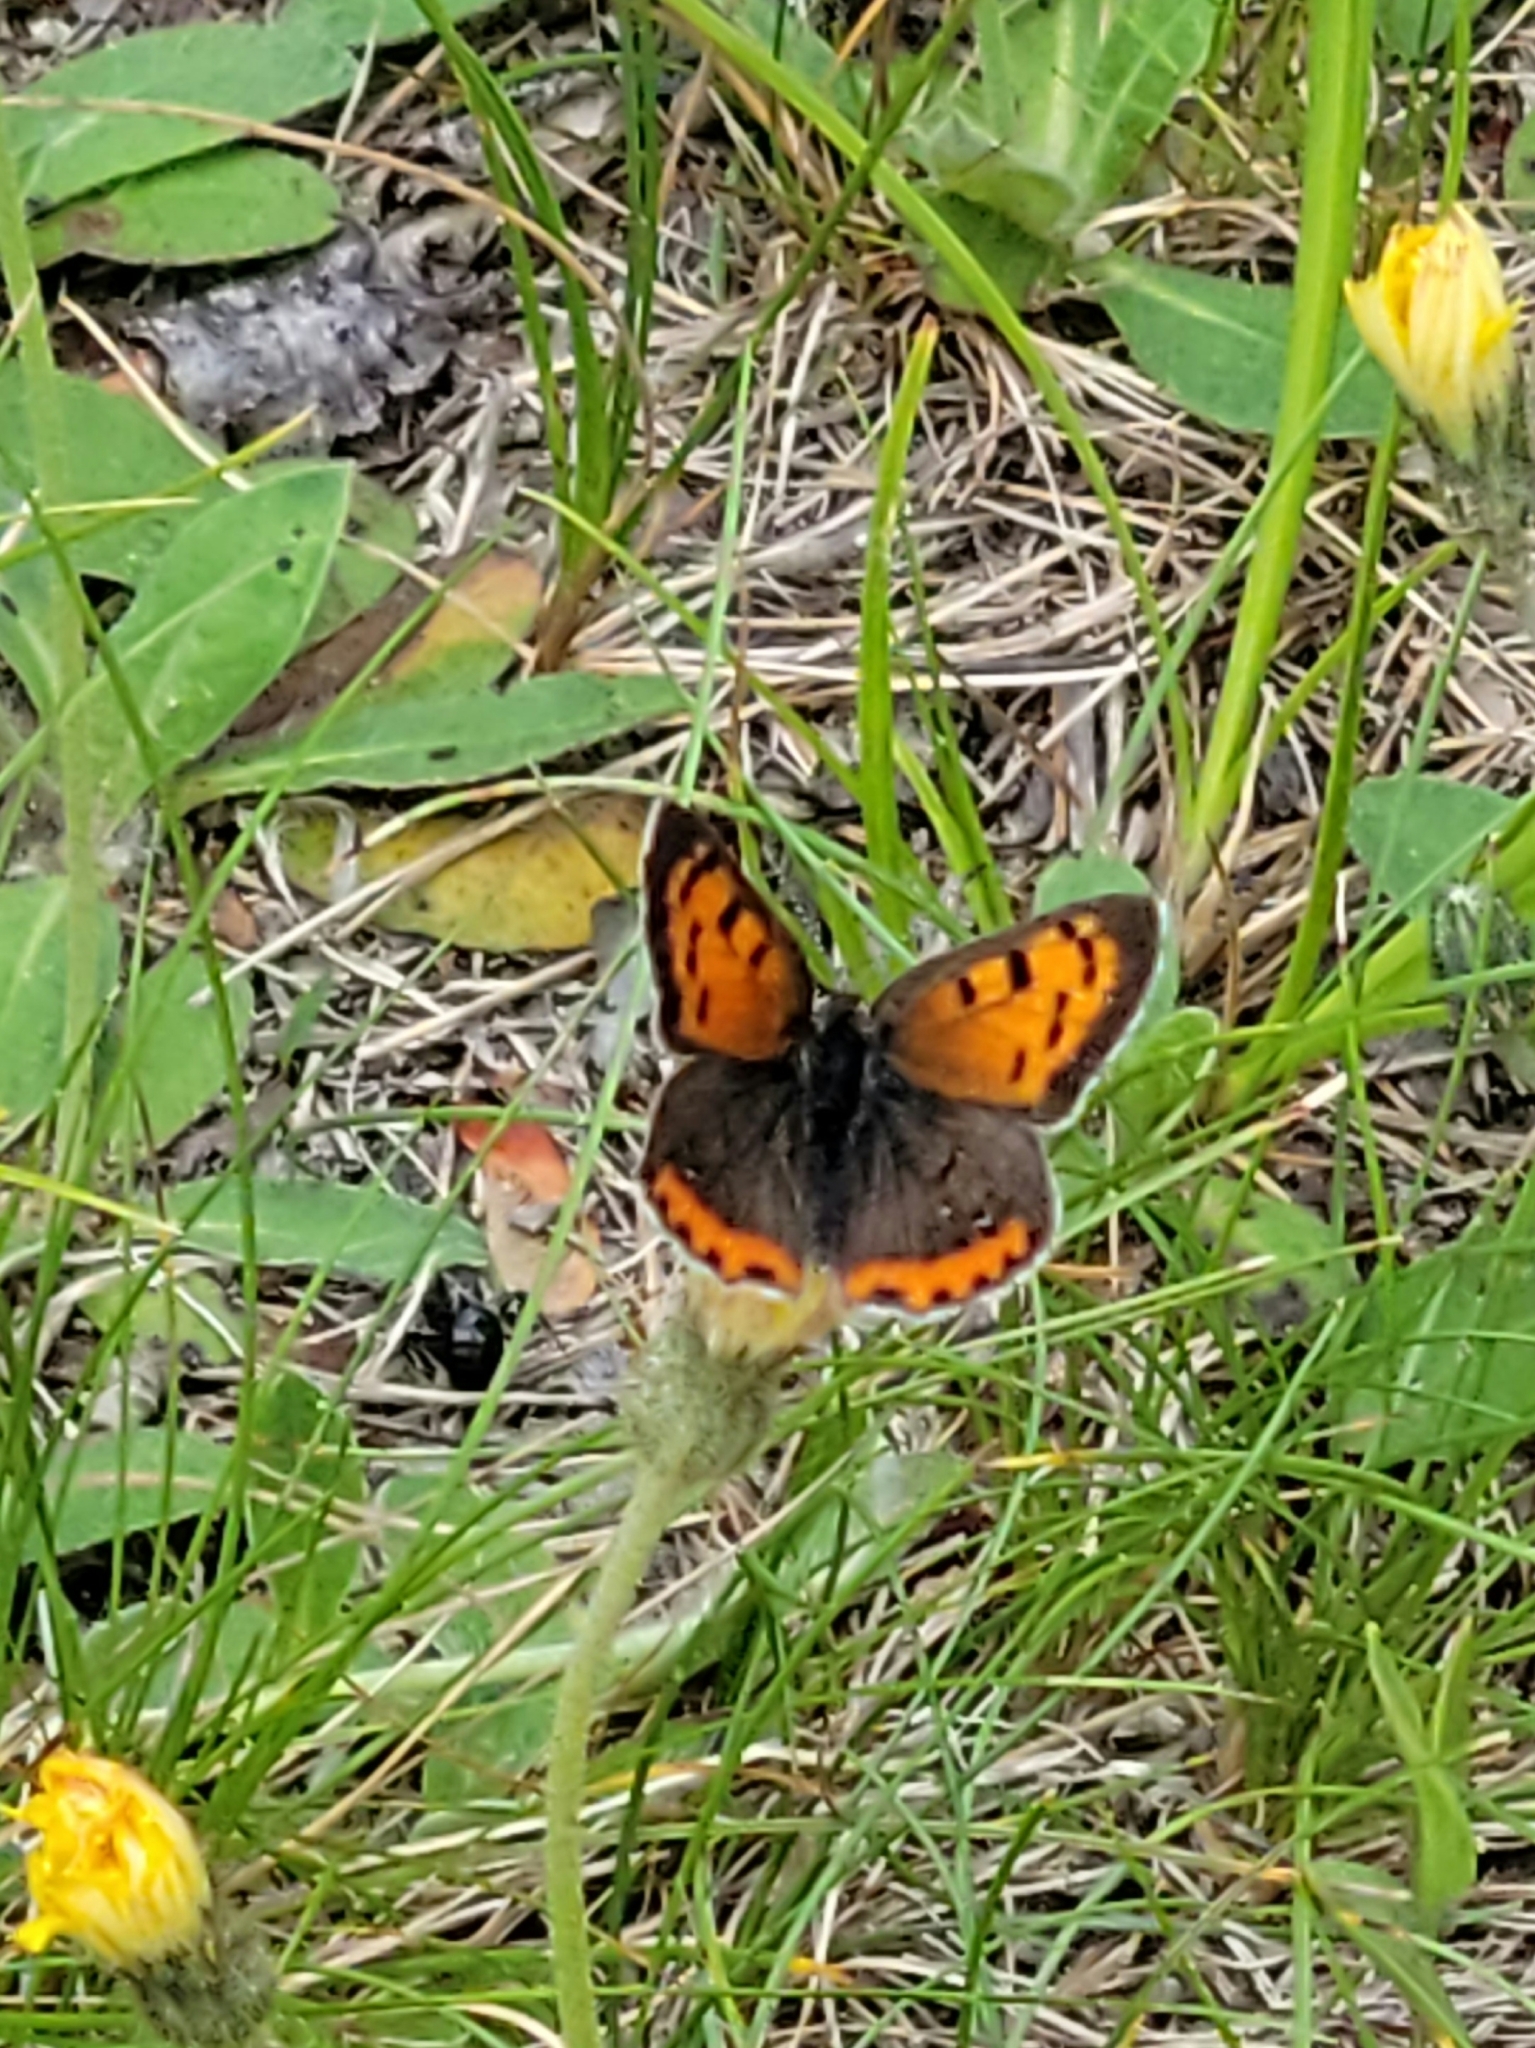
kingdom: Animalia
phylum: Arthropoda
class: Insecta
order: Lepidoptera
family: Lycaenidae
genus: Lycaena
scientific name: Lycaena hypophlaeas
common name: American copper
